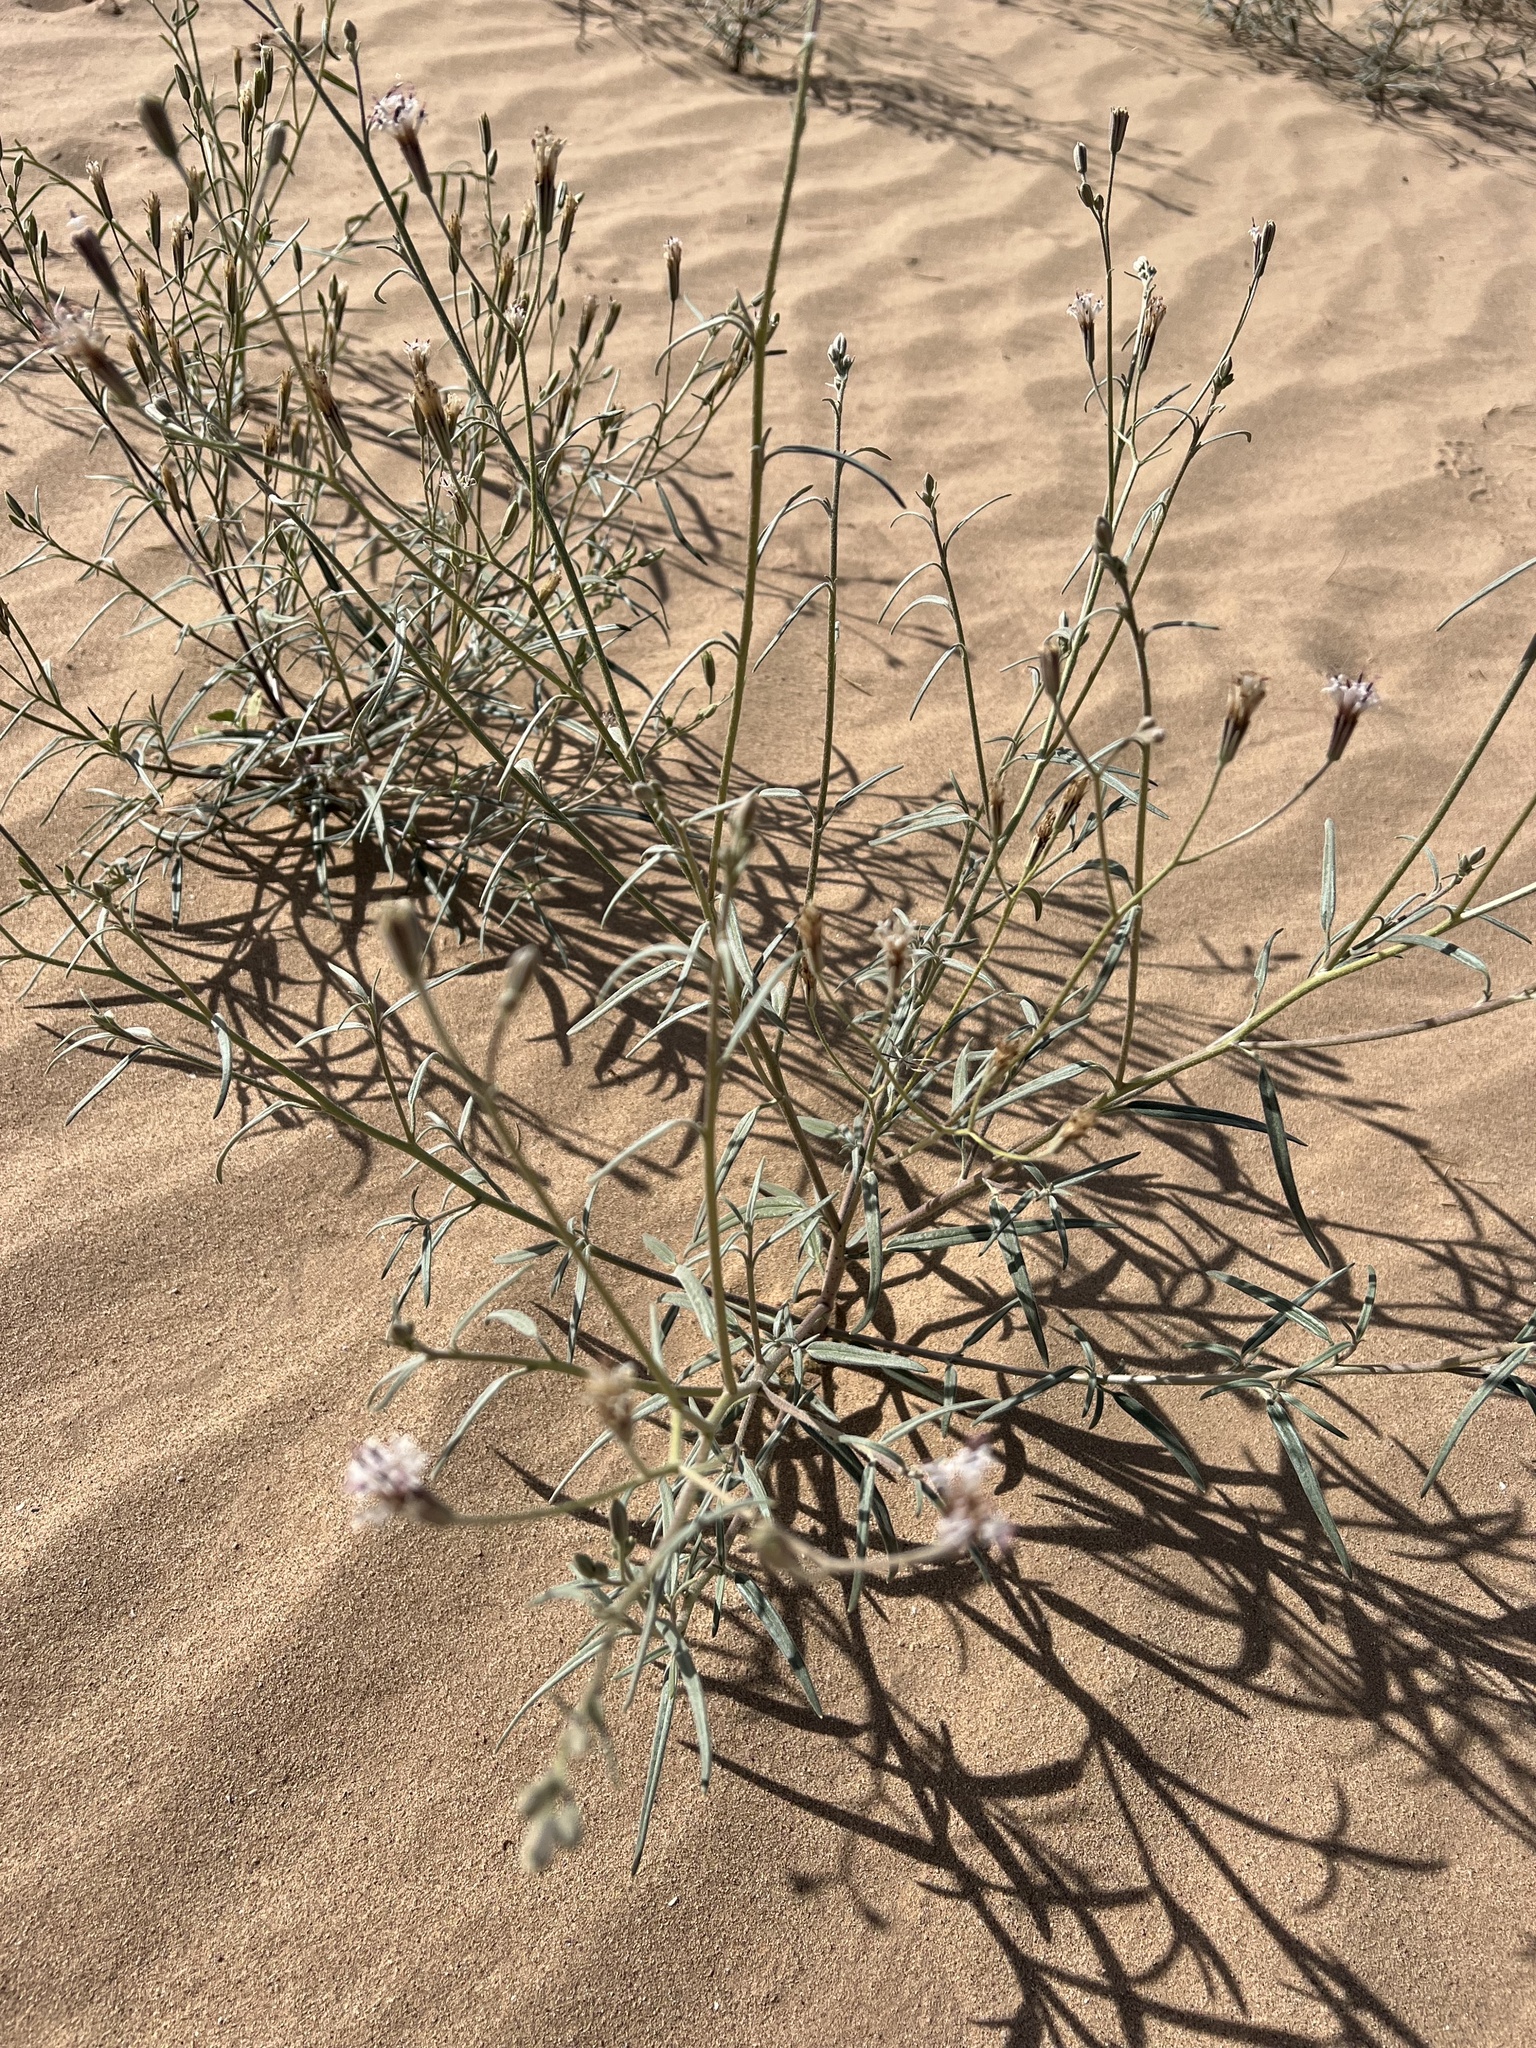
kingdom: Plantae
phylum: Tracheophyta
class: Magnoliopsida
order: Asterales
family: Asteraceae
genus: Palafoxia
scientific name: Palafoxia arida
